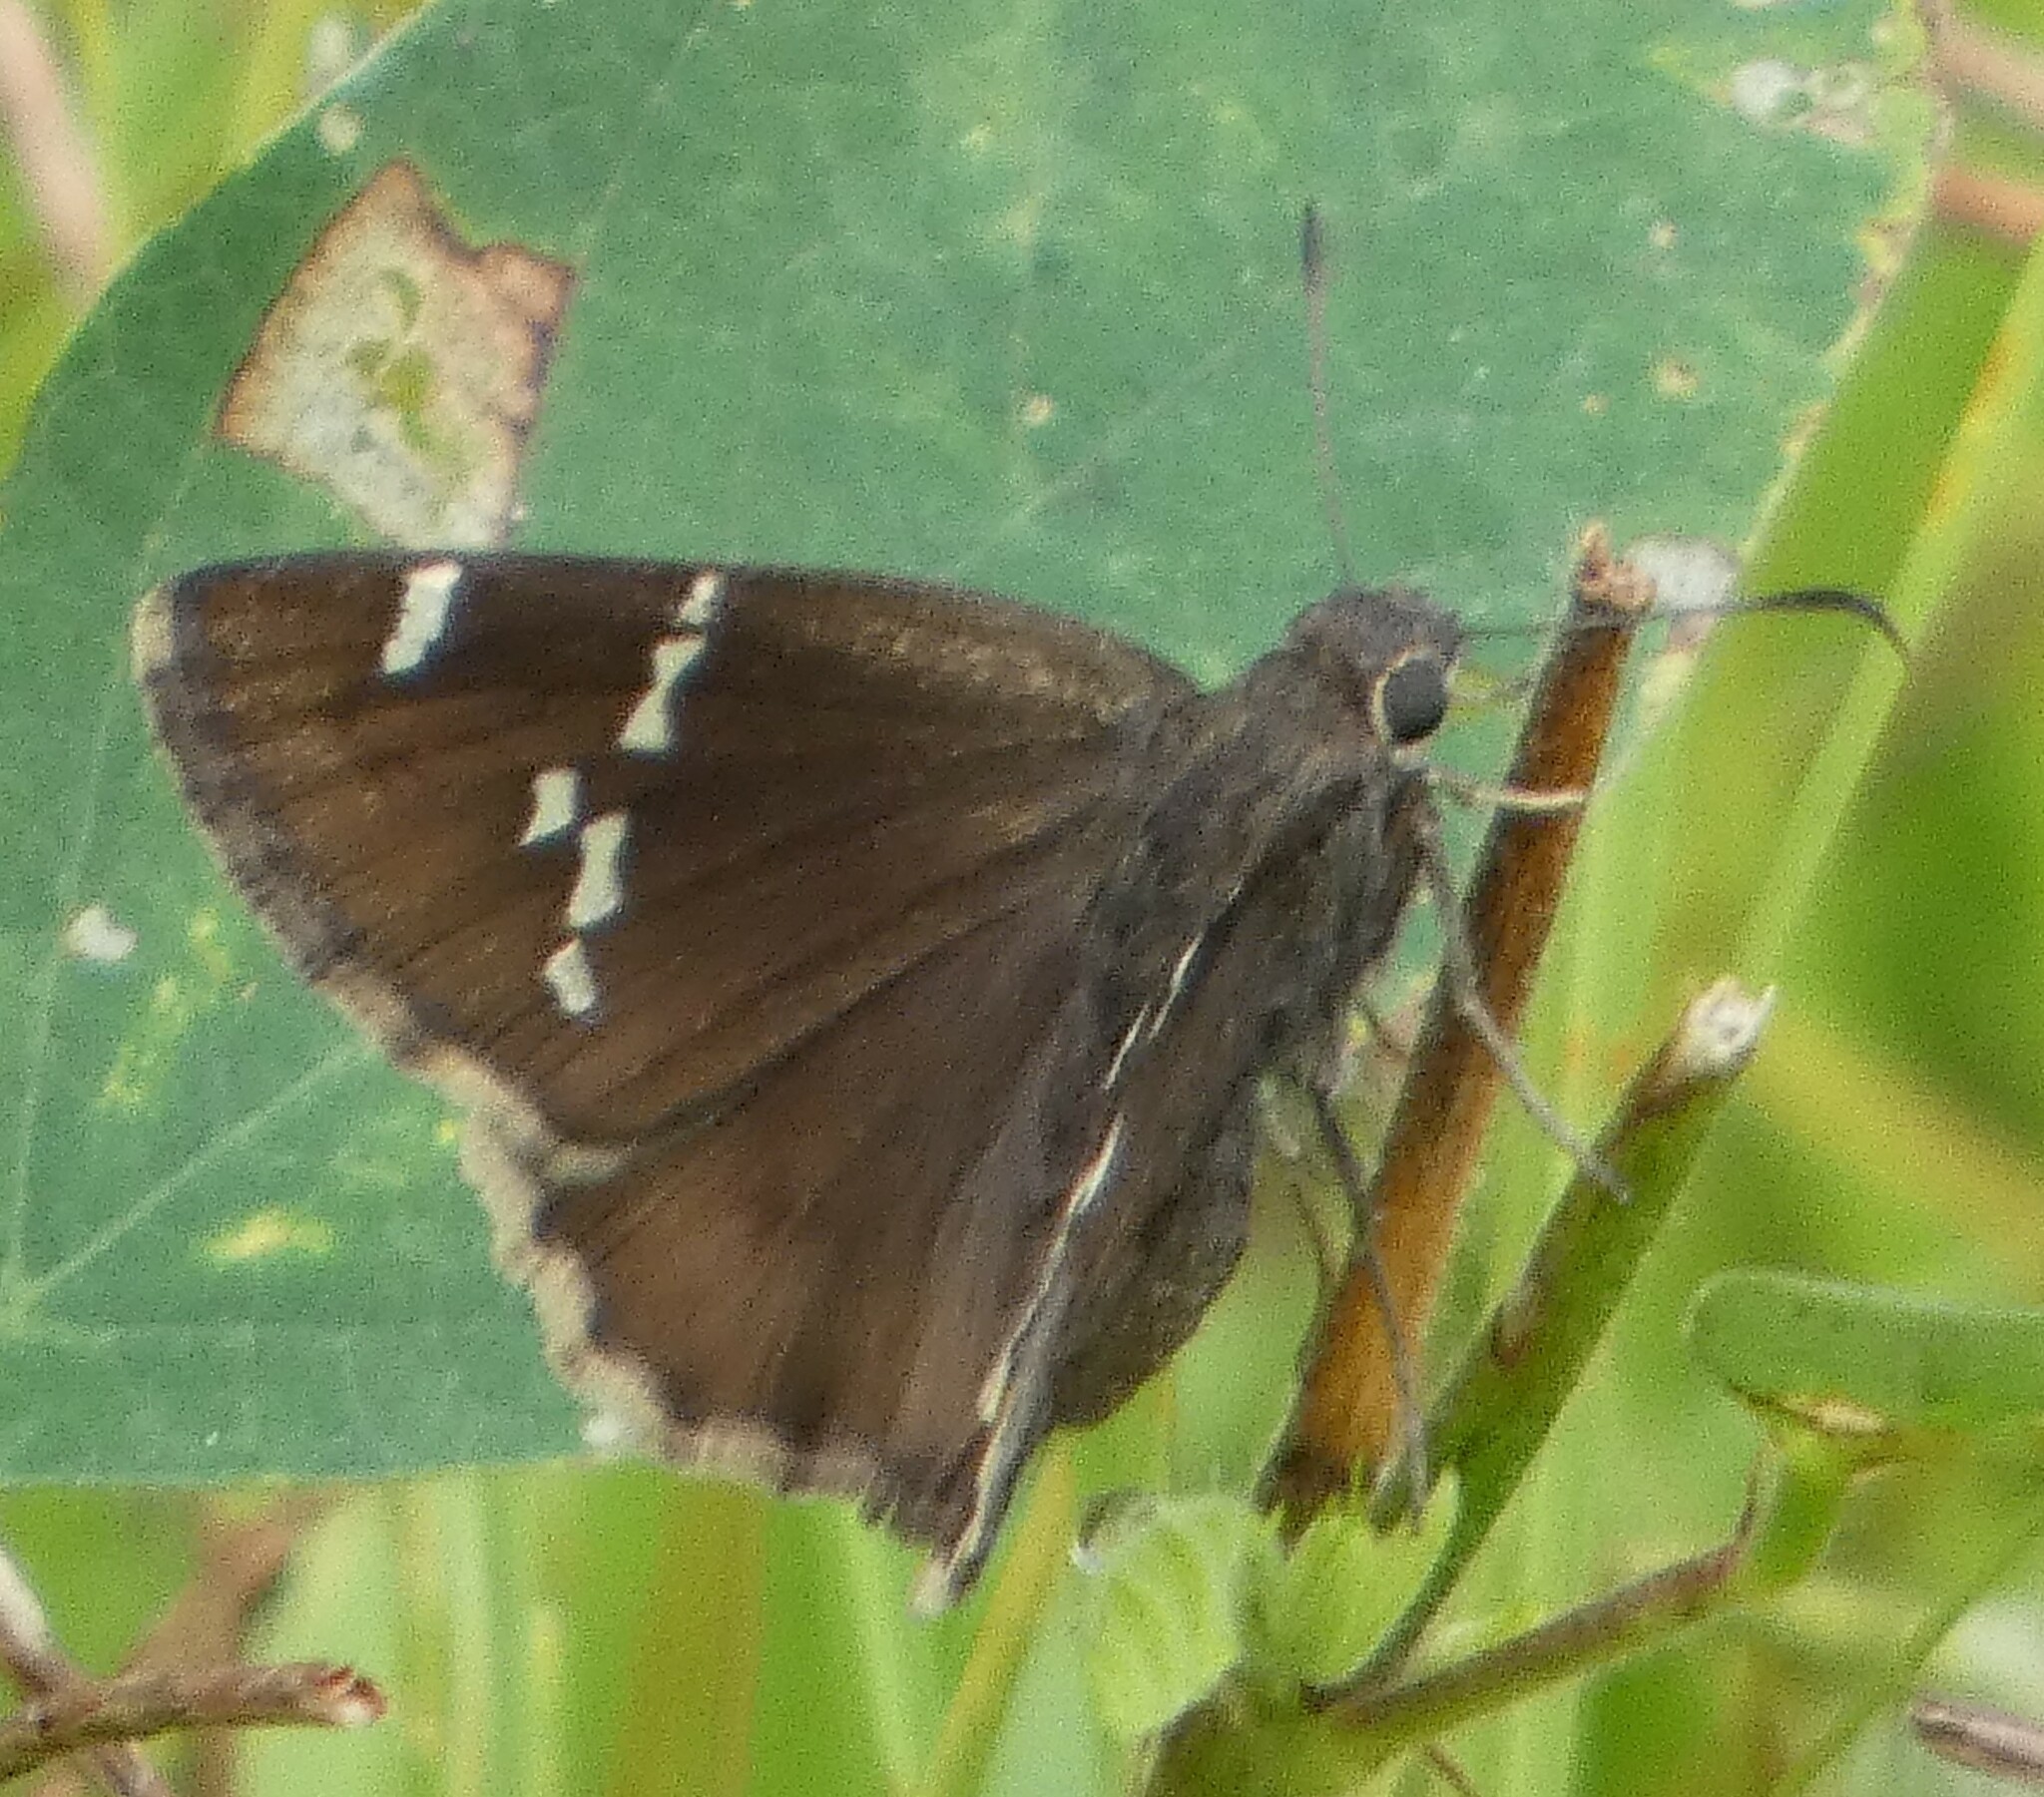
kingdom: Animalia
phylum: Arthropoda
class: Insecta
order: Lepidoptera
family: Hesperiidae
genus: Thorybes
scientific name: Thorybes daunus
